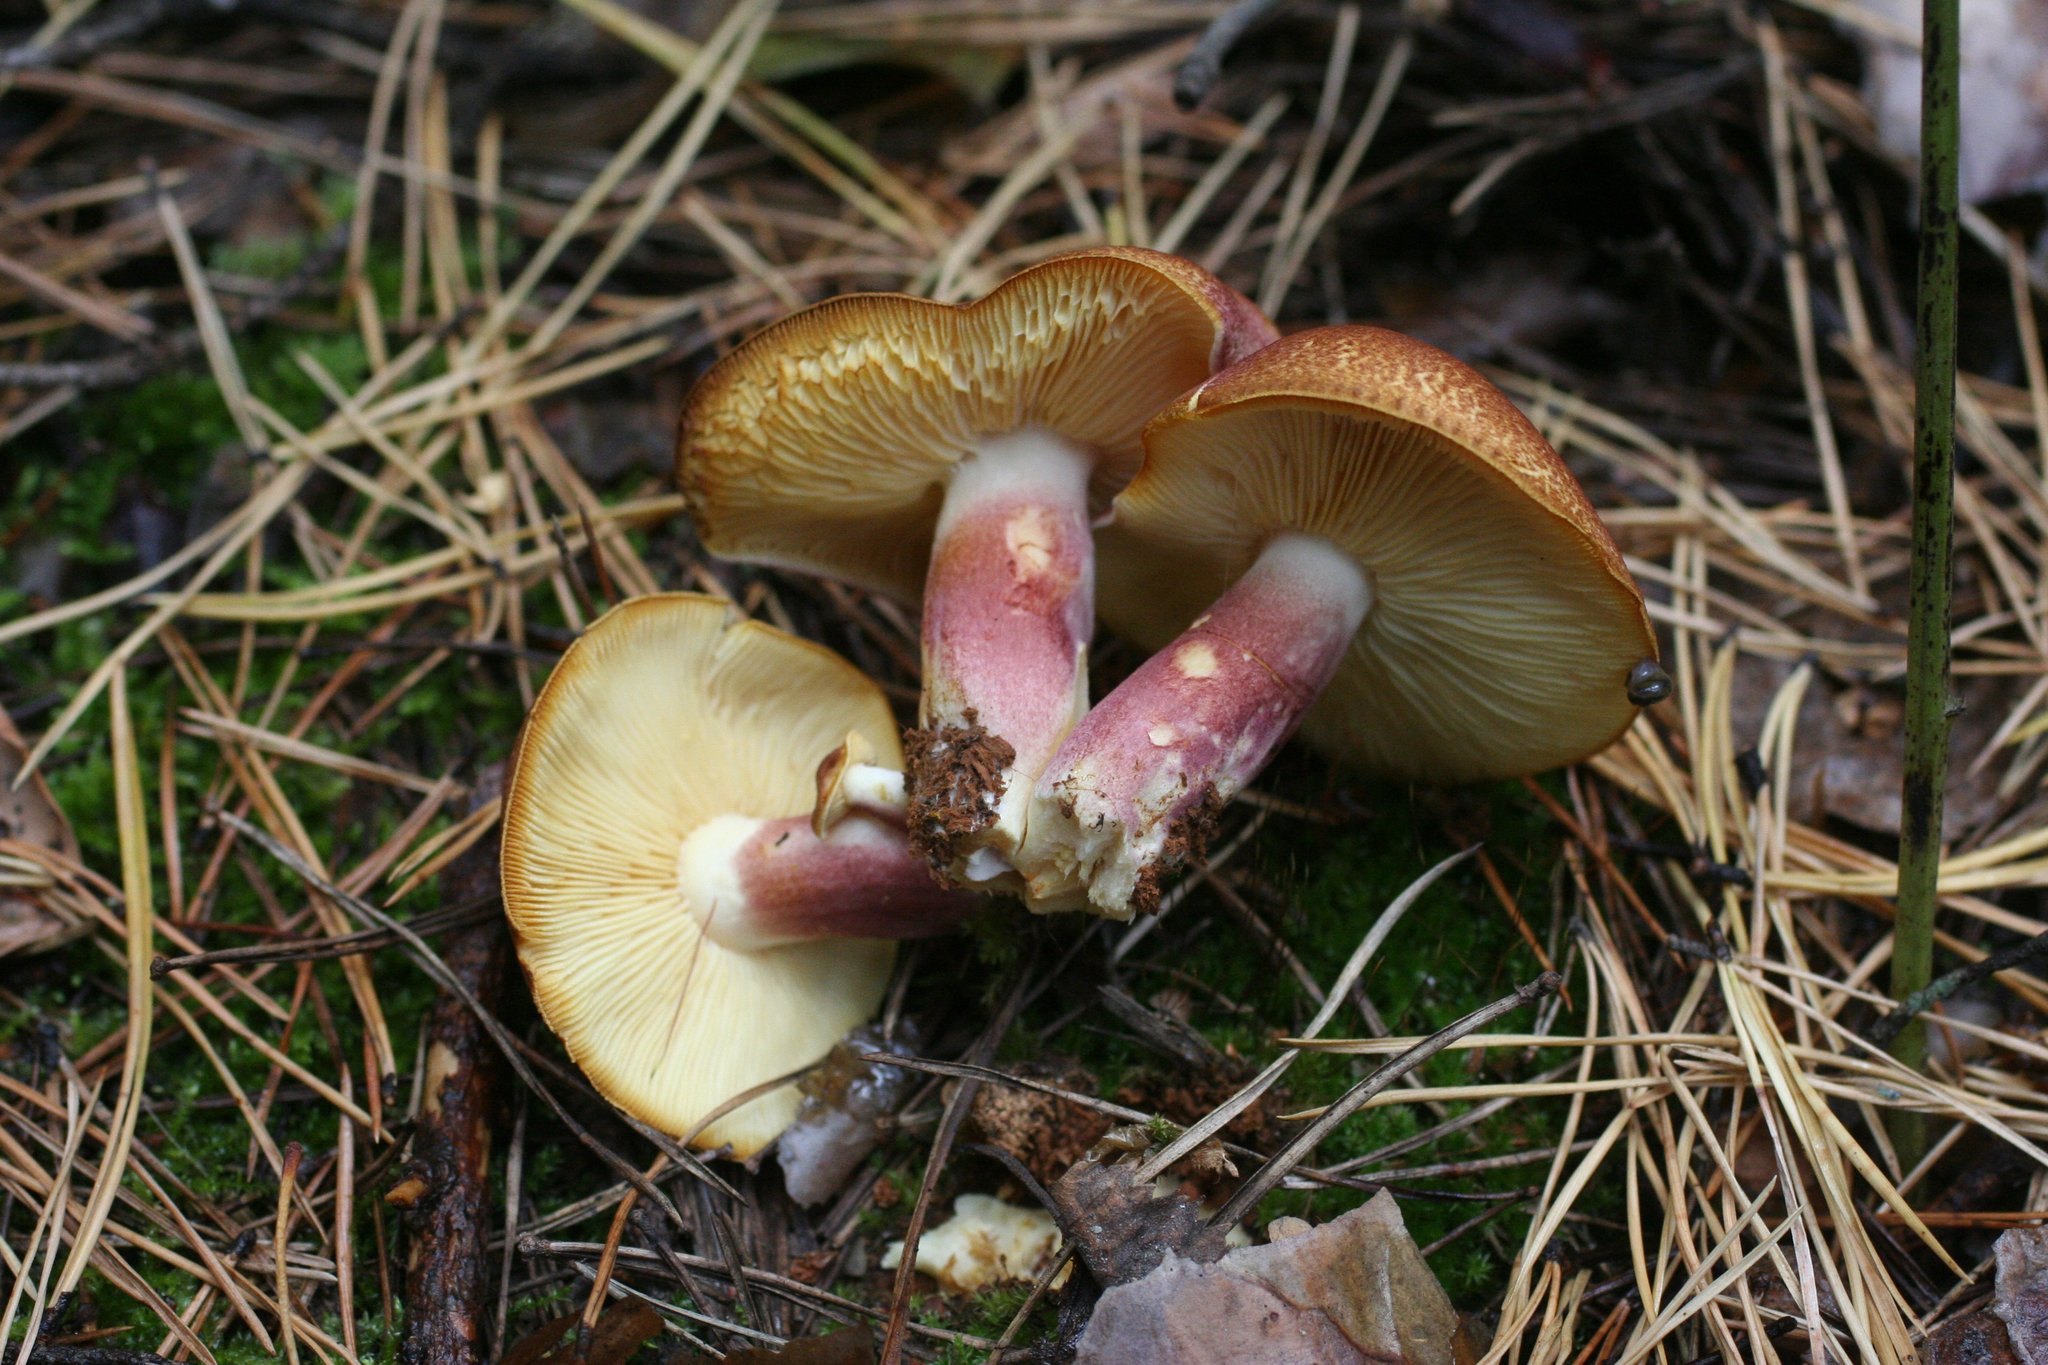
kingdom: Fungi
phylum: Basidiomycota
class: Agaricomycetes
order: Agaricales
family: Tricholomataceae
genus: Tricholomopsis
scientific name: Tricholomopsis rutilans
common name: Plums and custard
